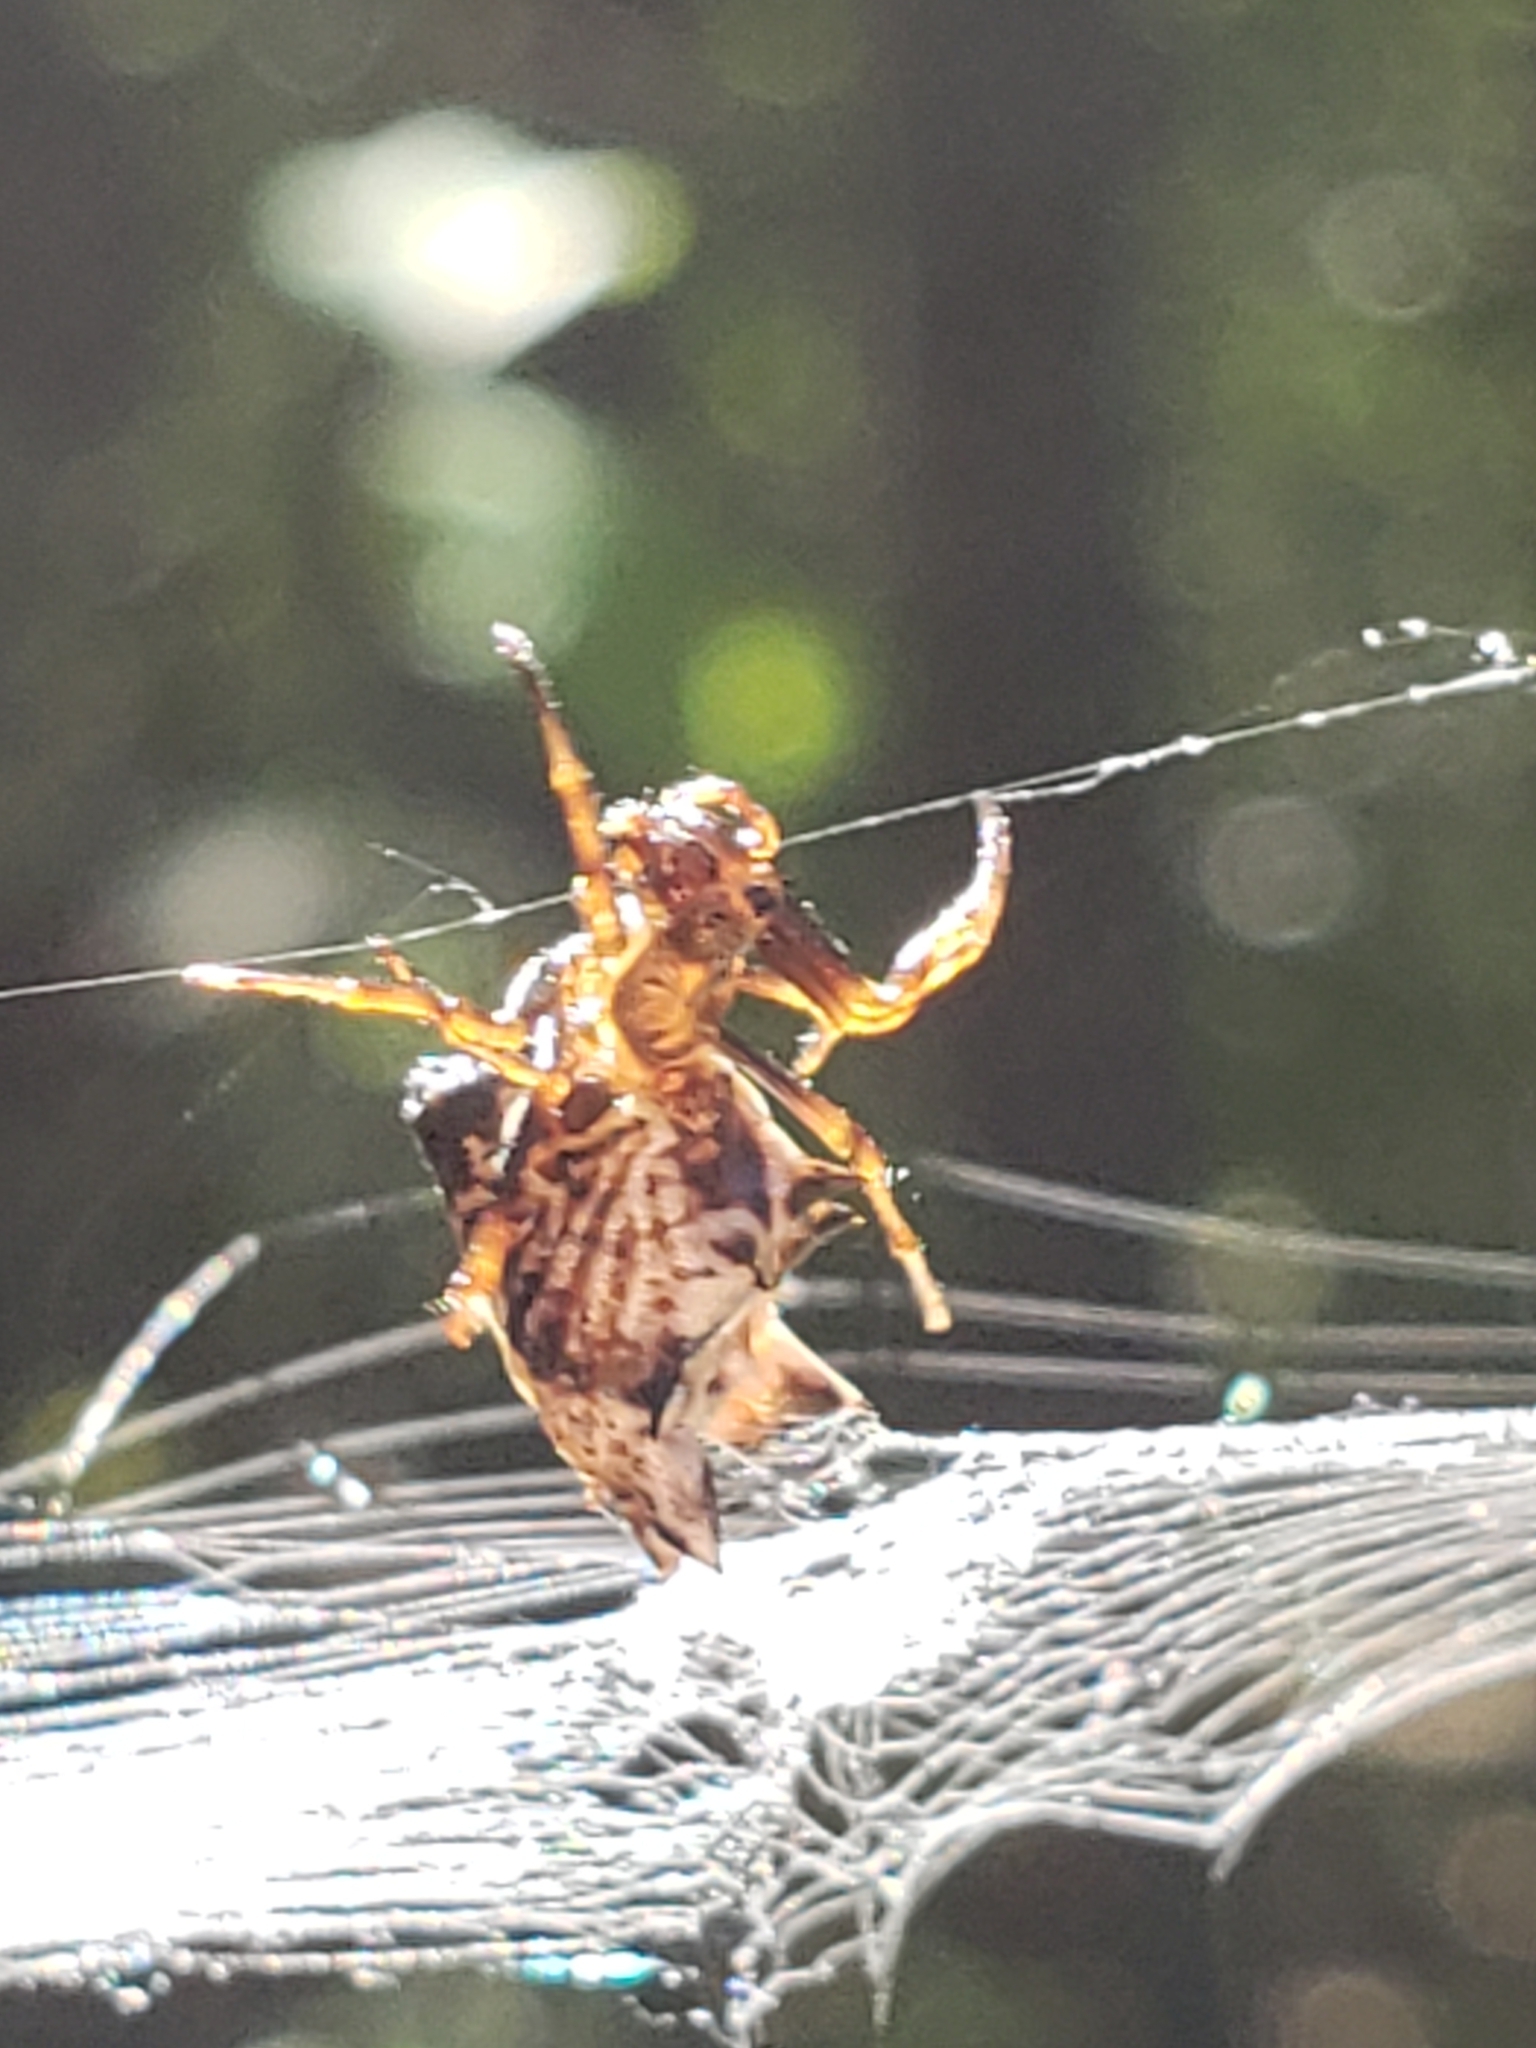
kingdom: Animalia
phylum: Arthropoda
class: Arachnida
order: Araneae
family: Araneidae
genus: Micrathena
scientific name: Micrathena gracilis
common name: Orb weavers
